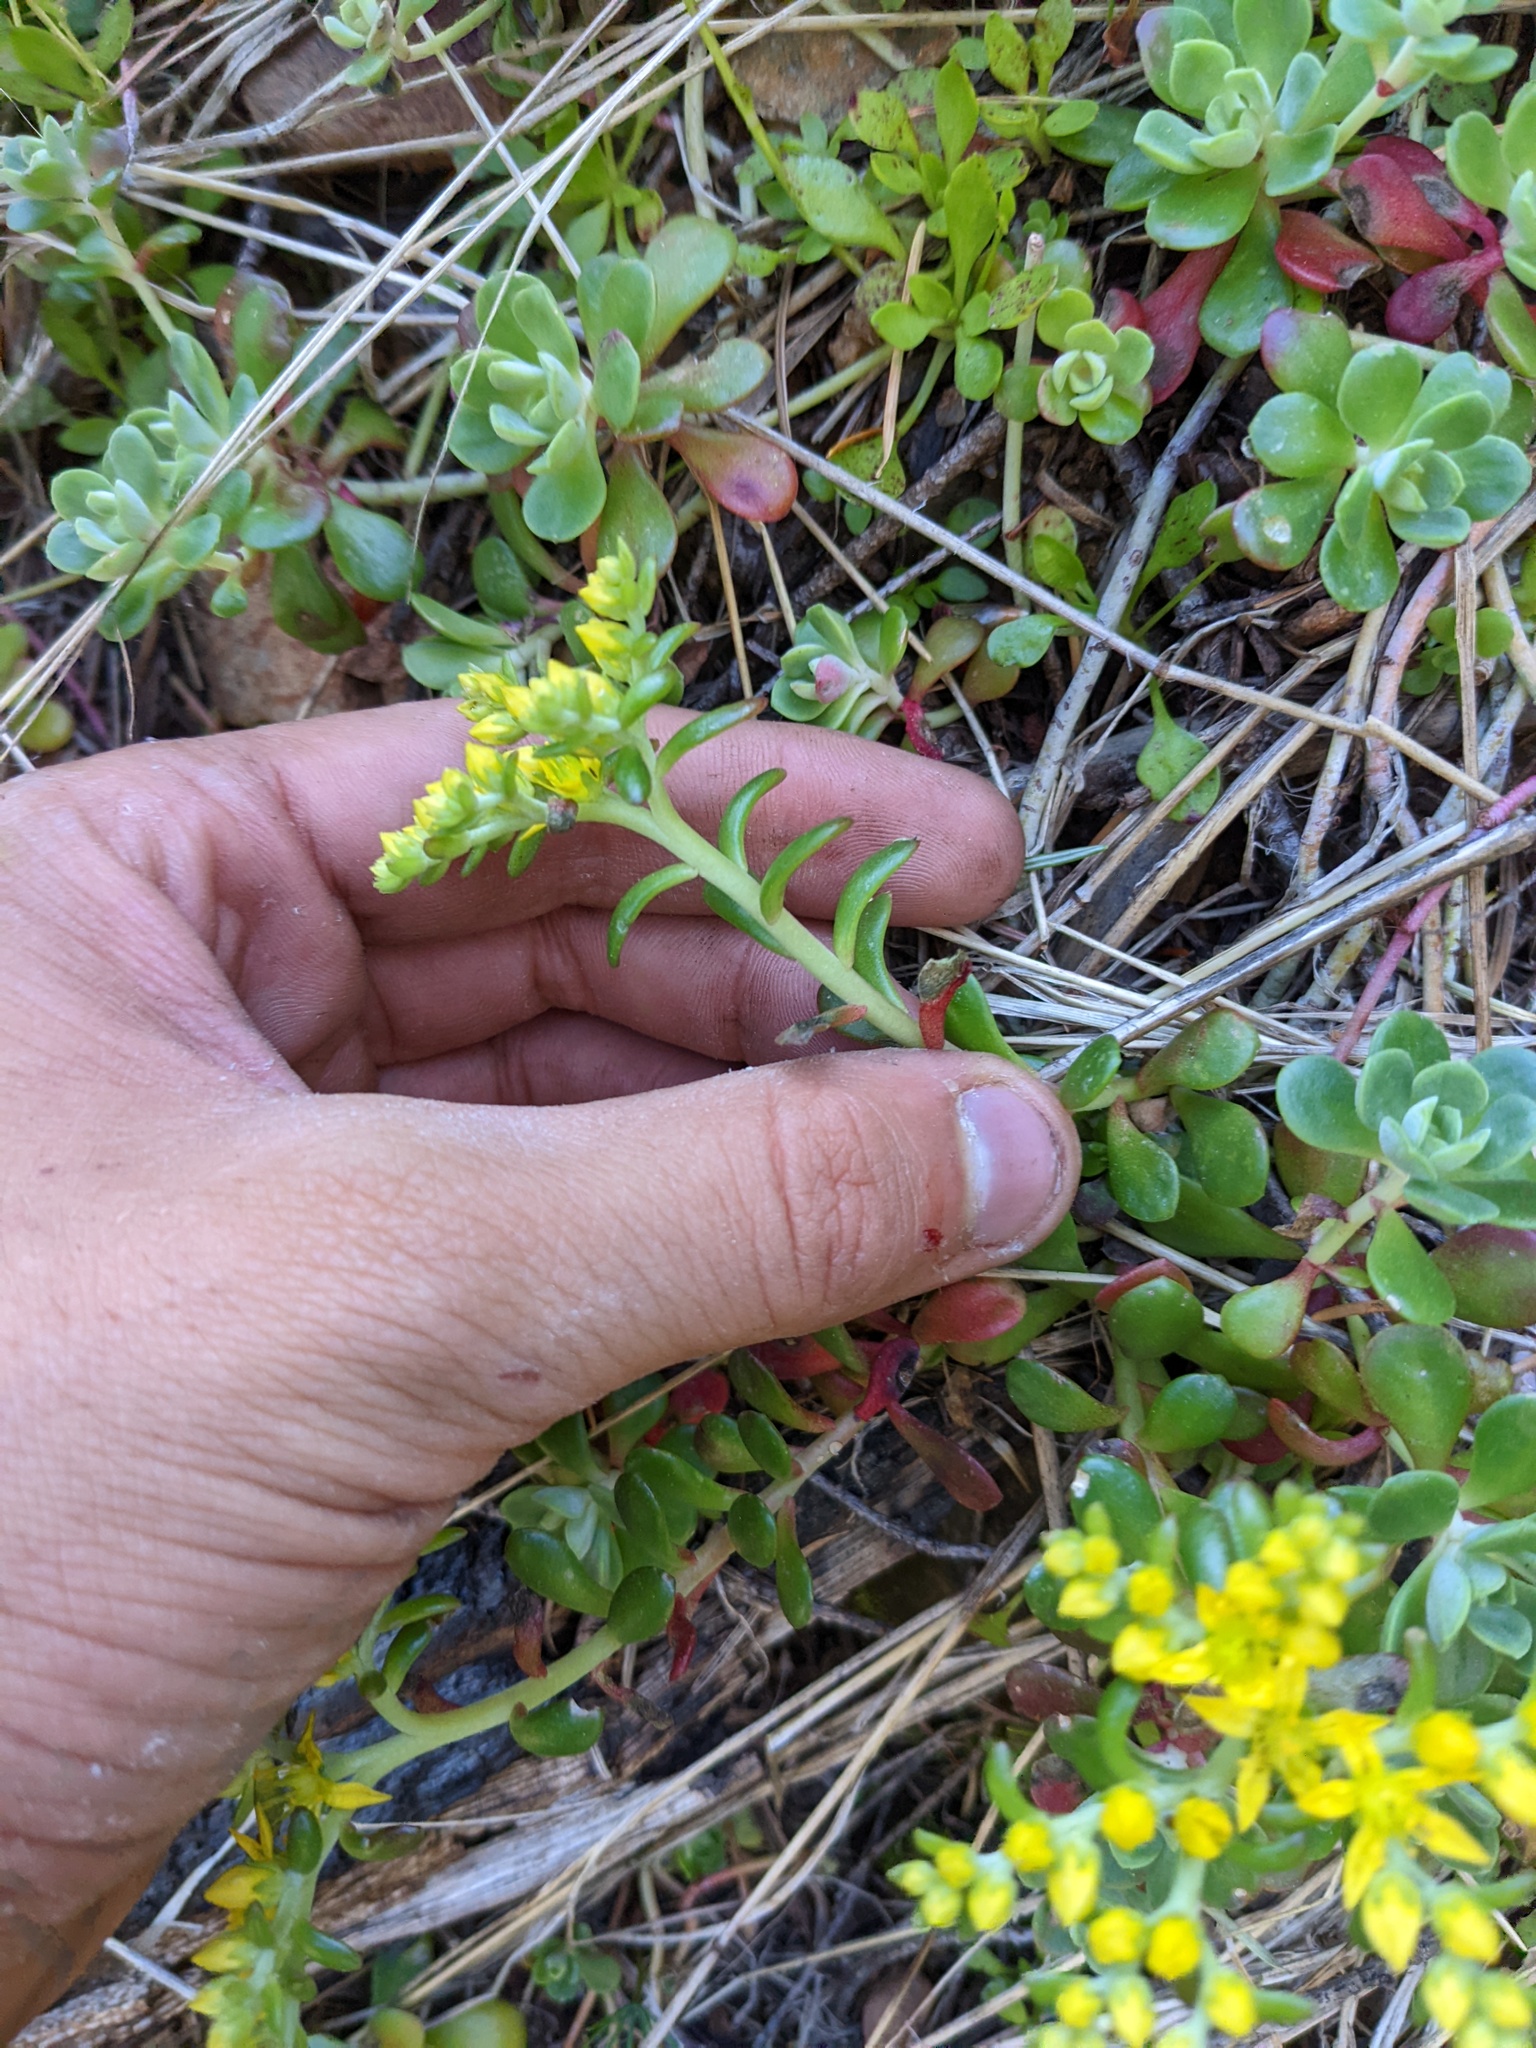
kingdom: Plantae
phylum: Tracheophyta
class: Magnoliopsida
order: Saxifragales
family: Crassulaceae
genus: Sedum
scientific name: Sedum spathulifolium
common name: Colorado stonecrop
